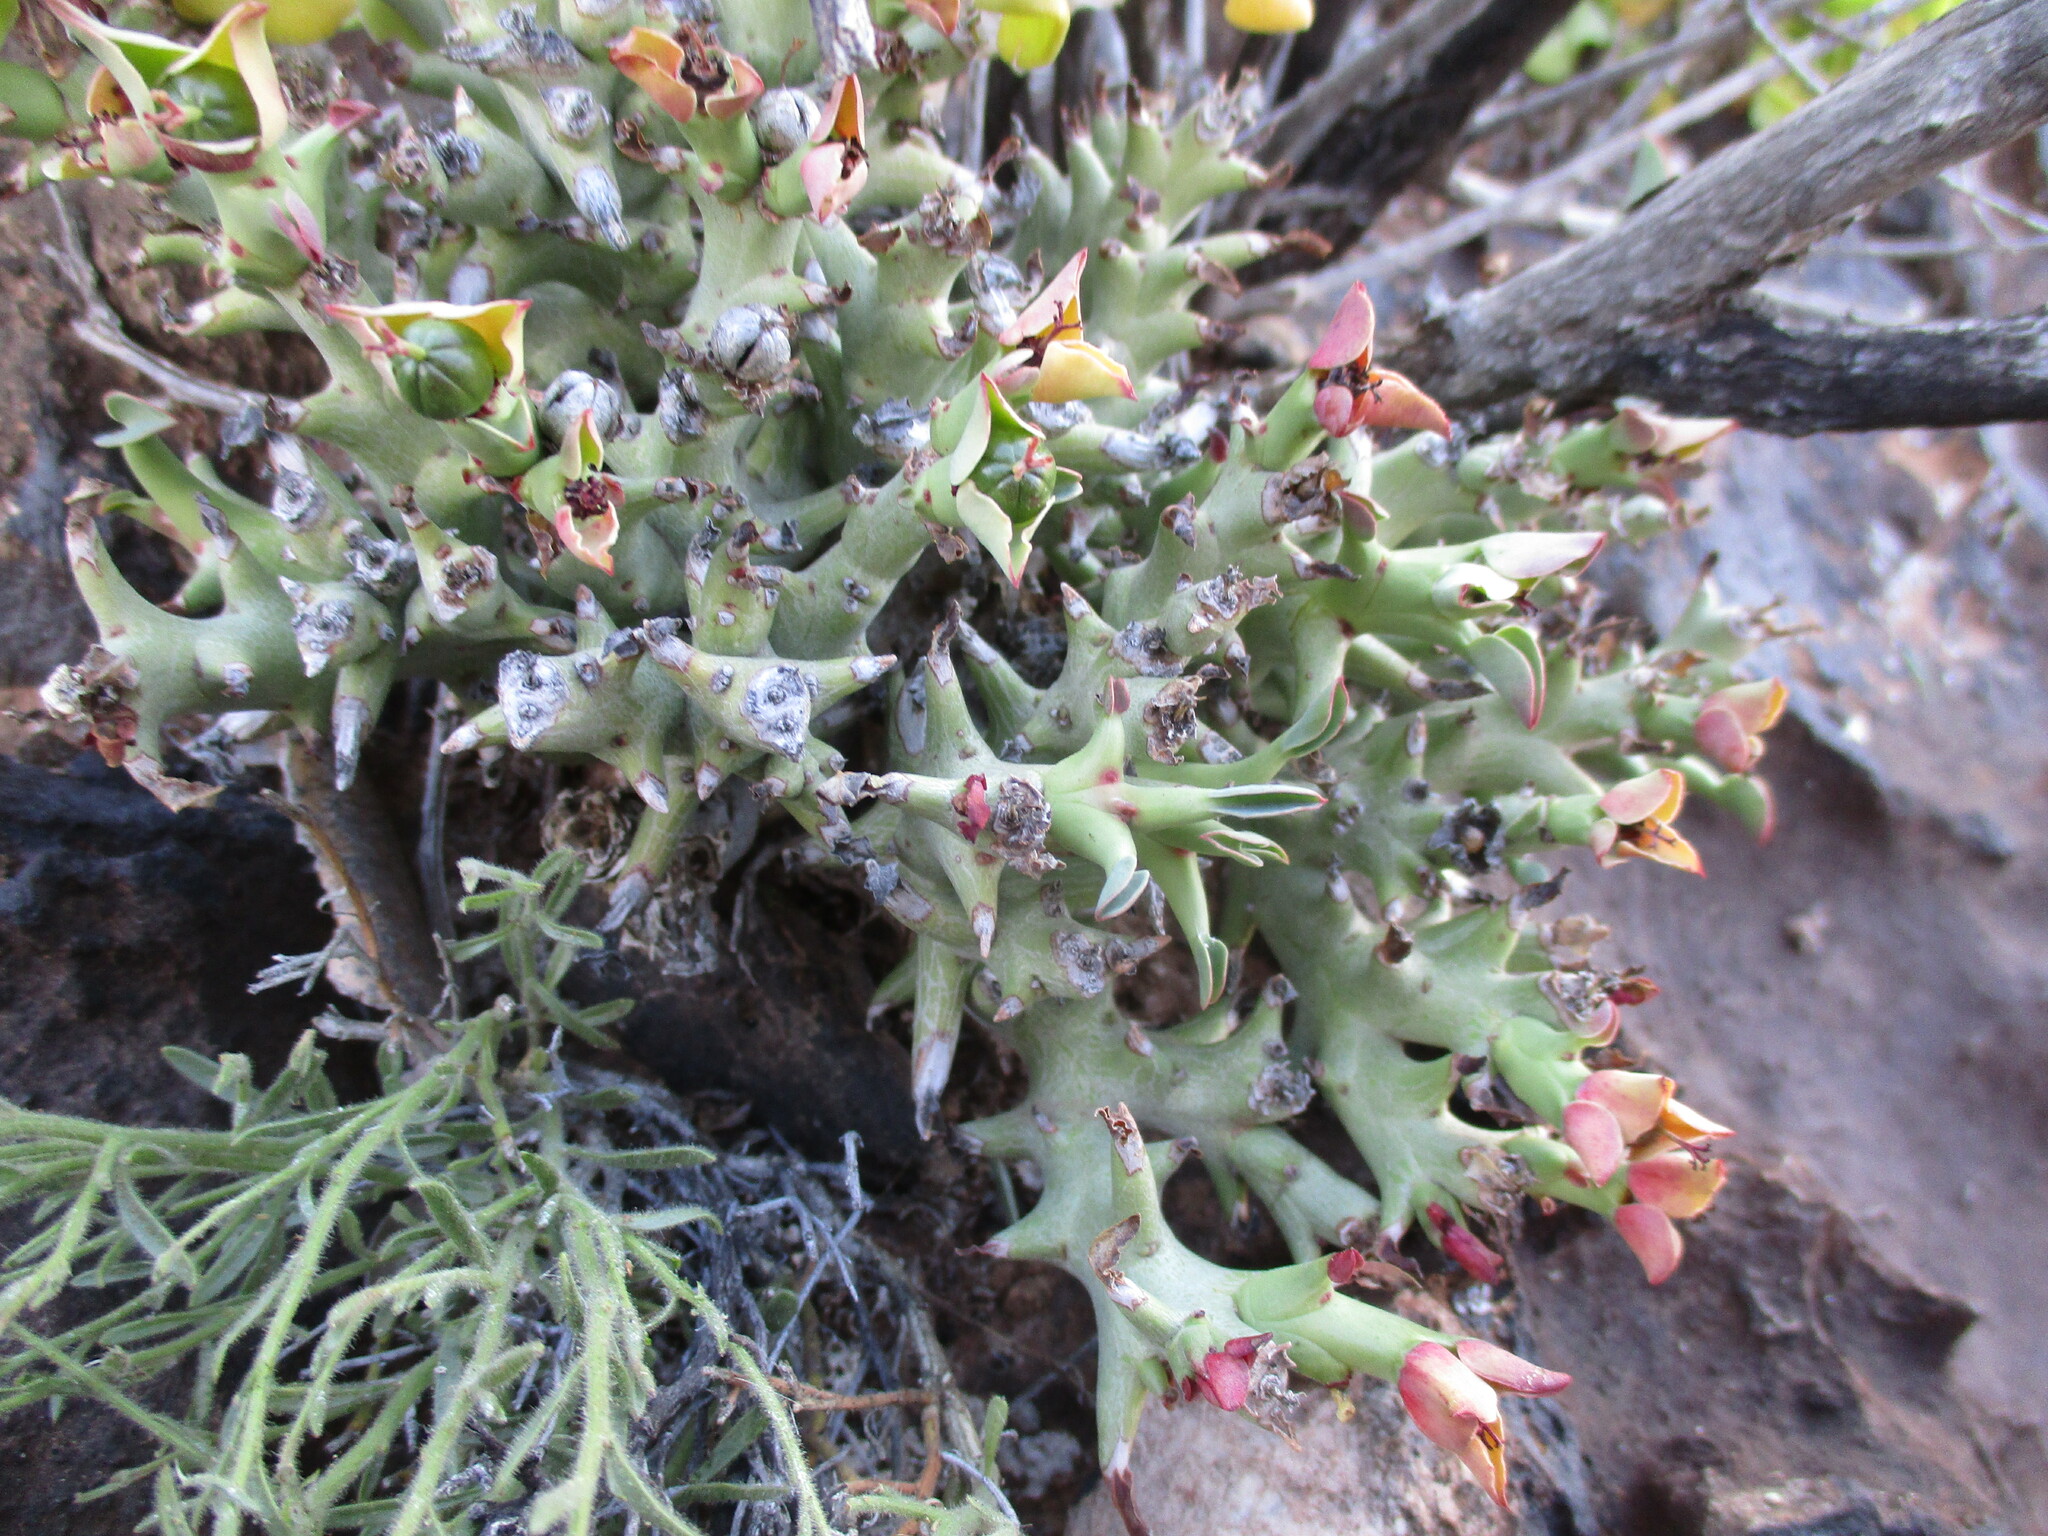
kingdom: Plantae
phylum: Tracheophyta
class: Magnoliopsida
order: Malpighiales
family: Euphorbiaceae
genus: Euphorbia
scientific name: Euphorbia hamata
